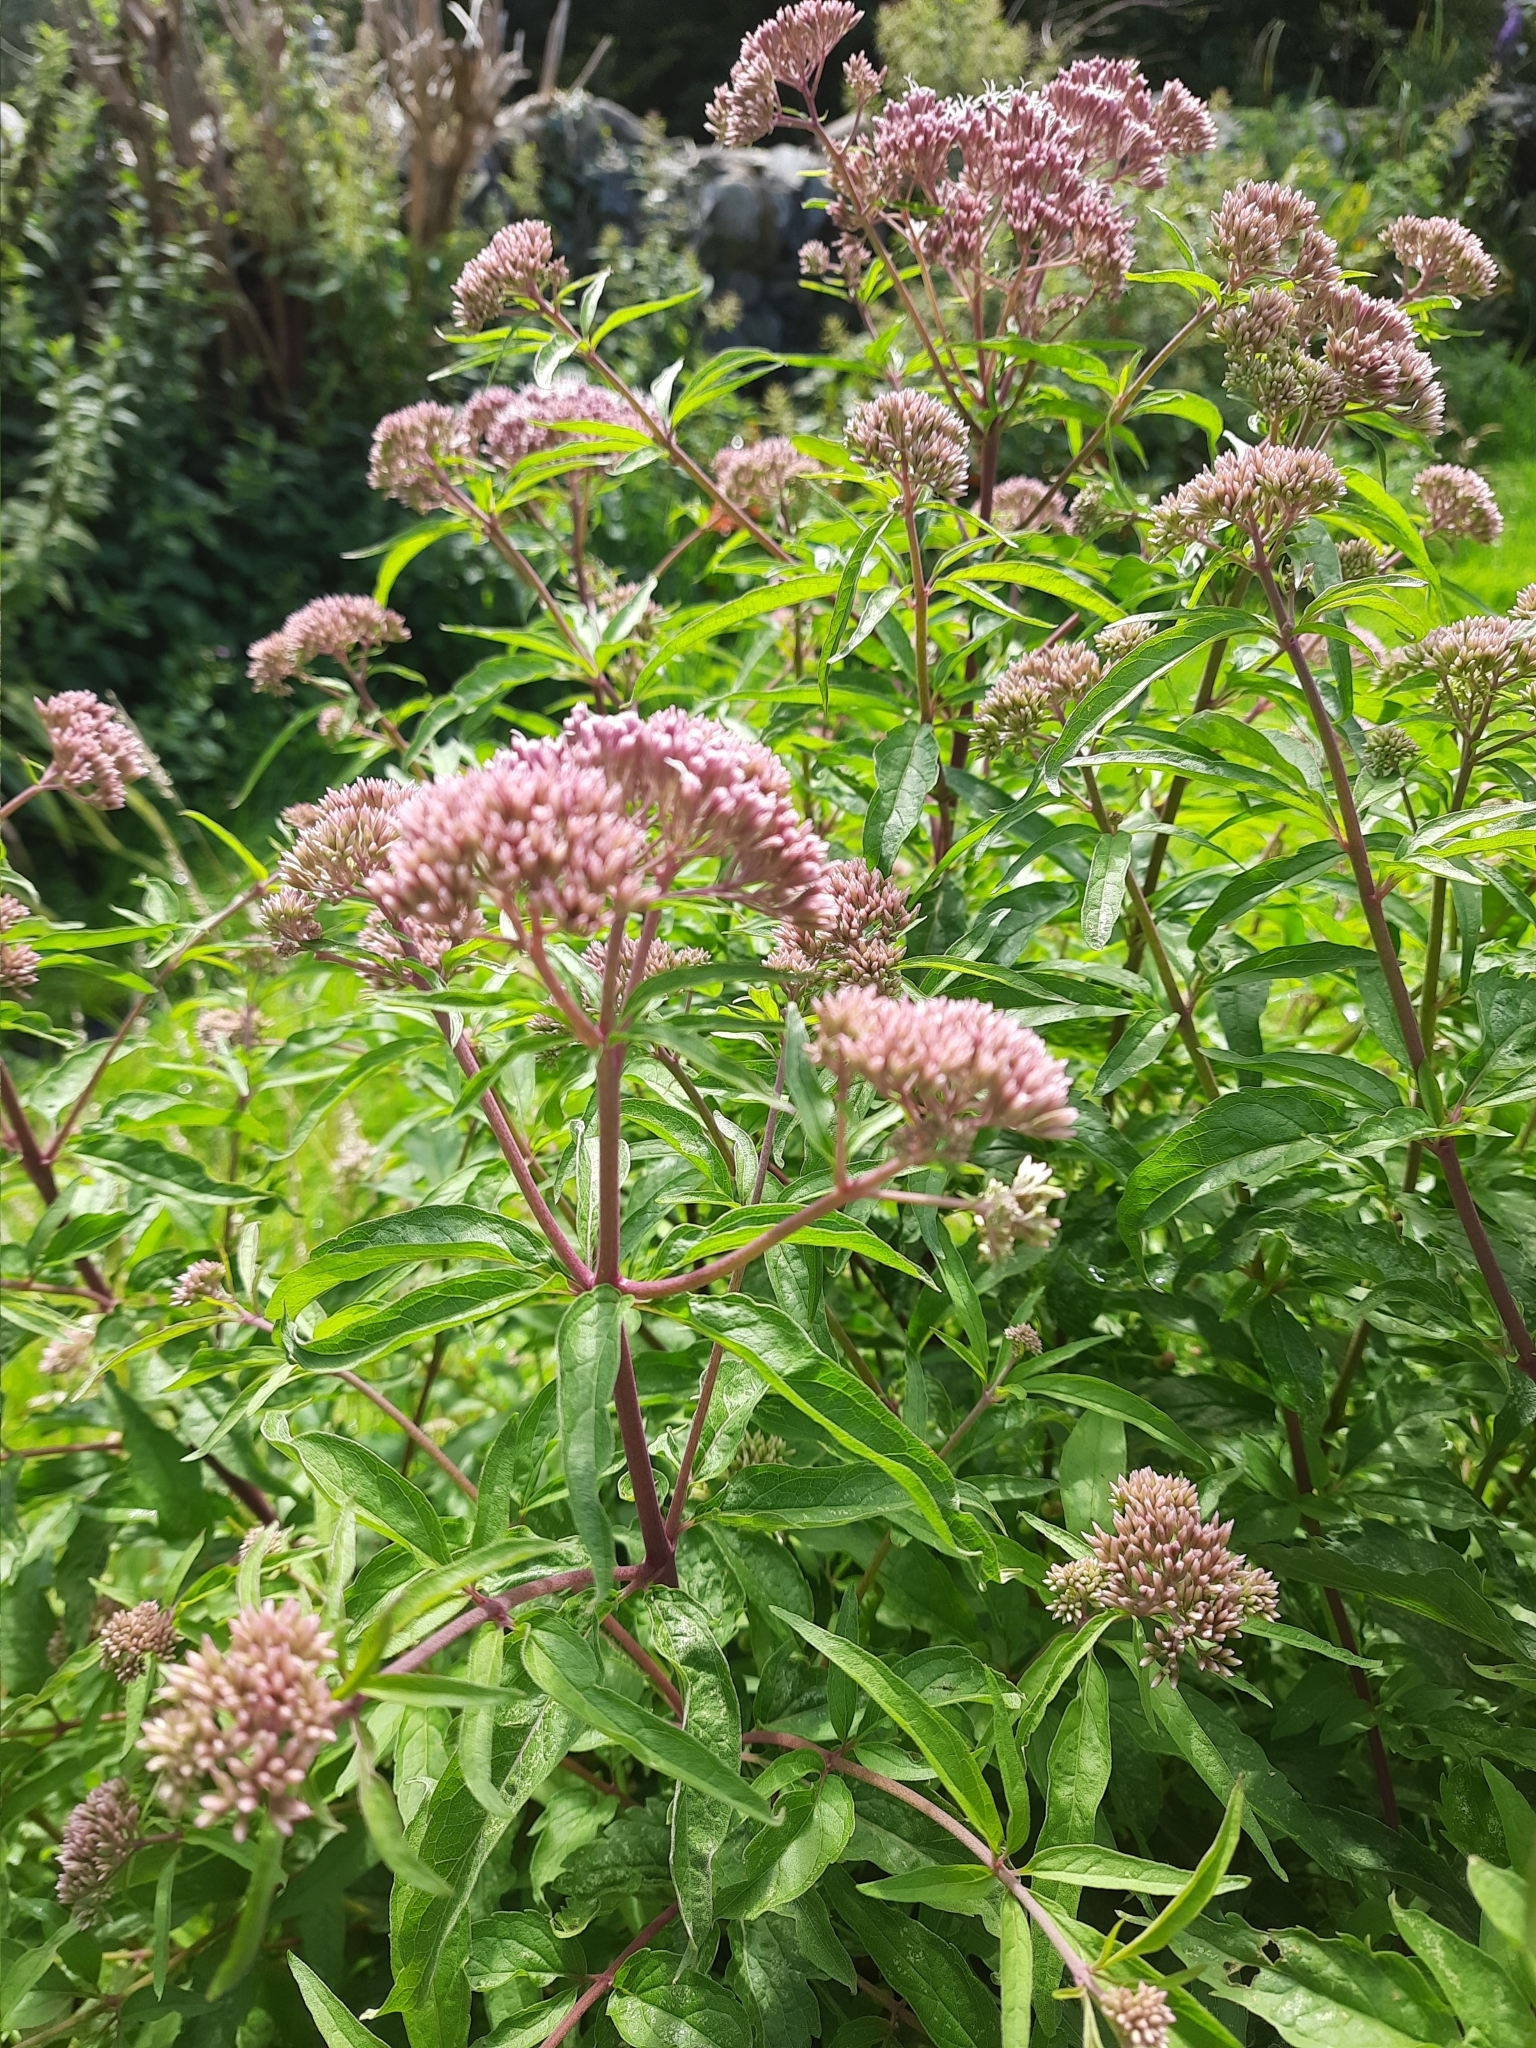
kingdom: Plantae
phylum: Tracheophyta
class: Magnoliopsida
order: Asterales
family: Asteraceae
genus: Eupatorium
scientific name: Eupatorium cannabinum
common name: Hemp-agrimony
